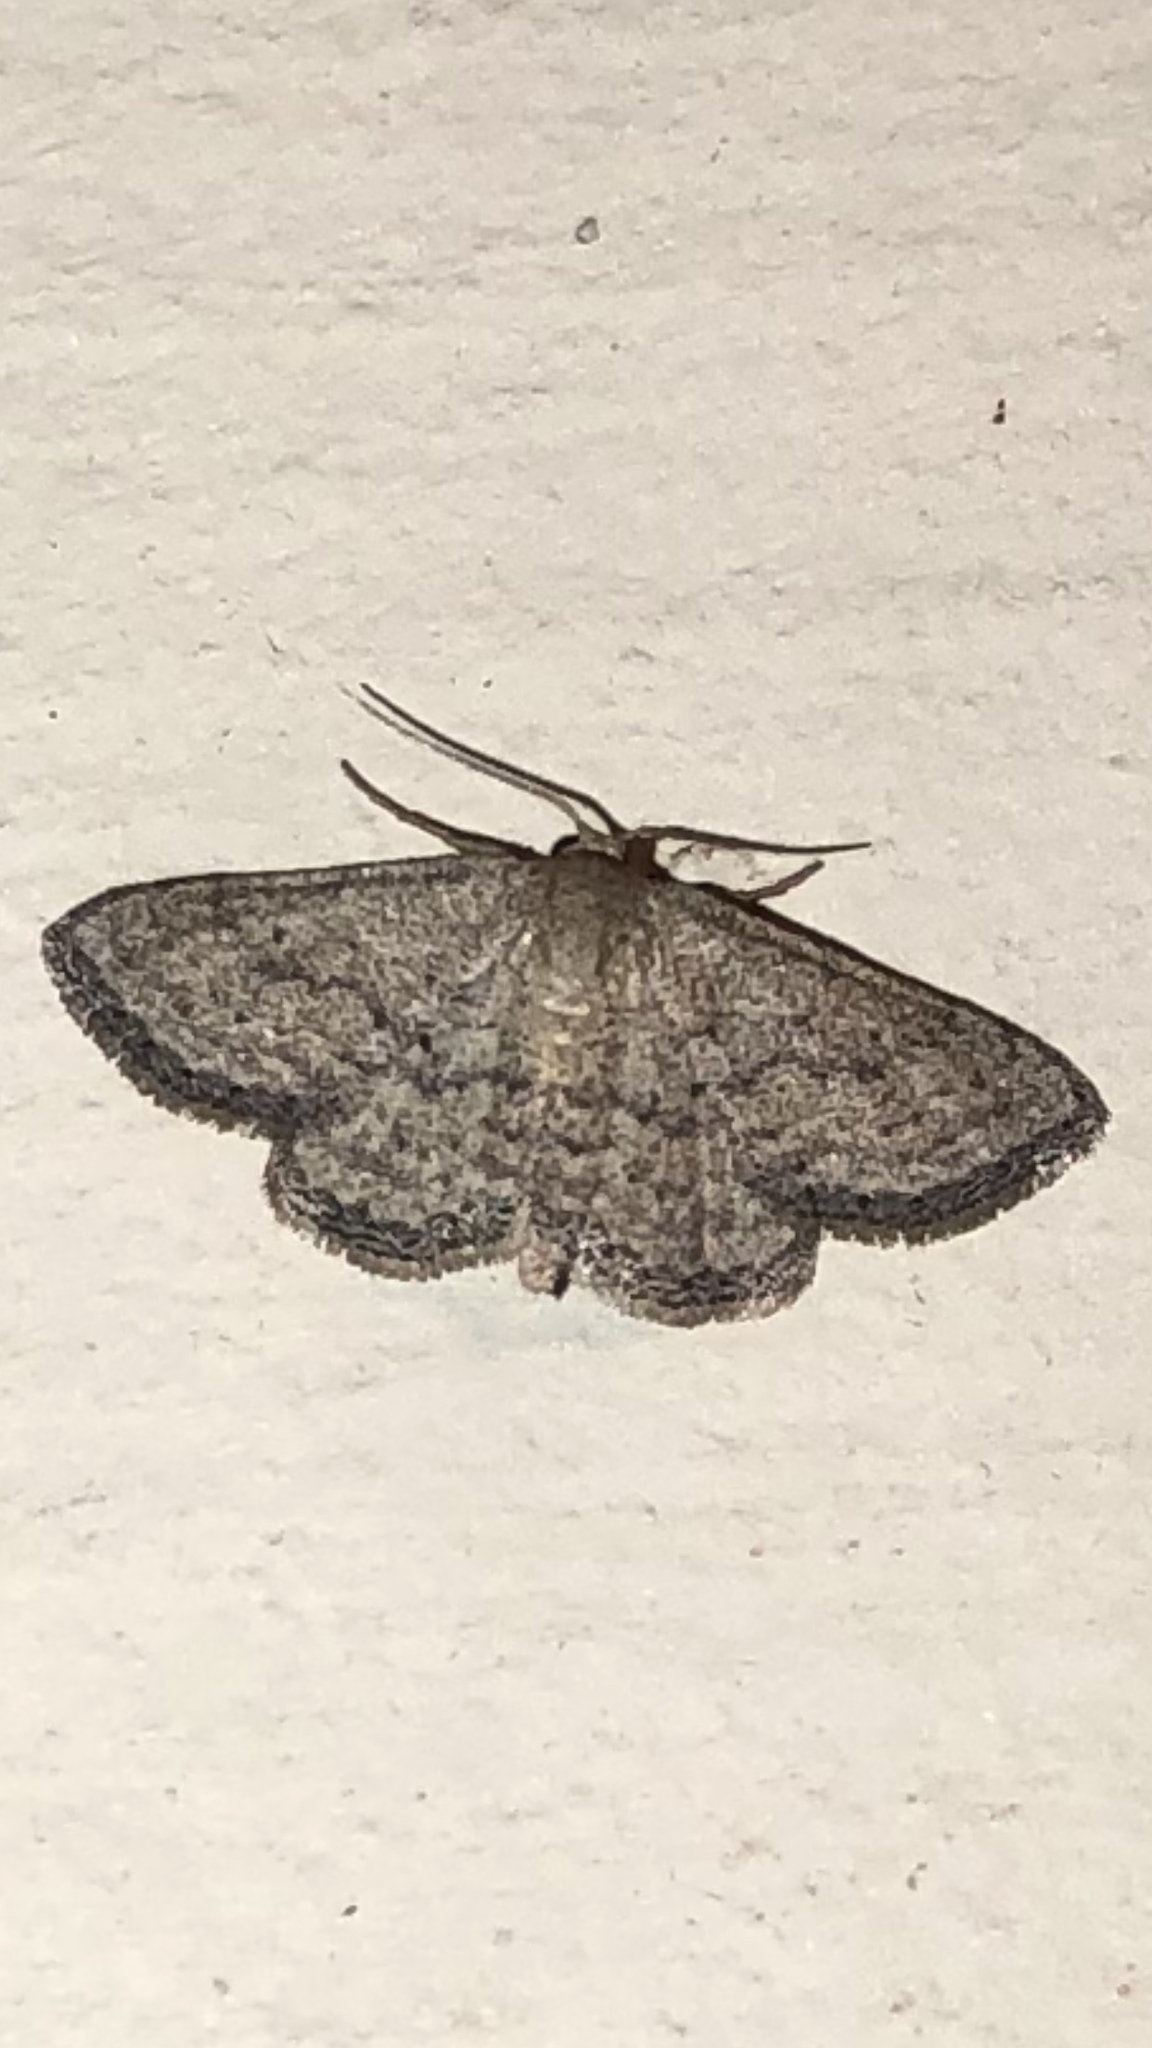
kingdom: Animalia
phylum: Arthropoda
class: Insecta
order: Lepidoptera
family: Geometridae
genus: Lobocleta
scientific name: Lobocleta ossularia
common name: Drab brown wave
